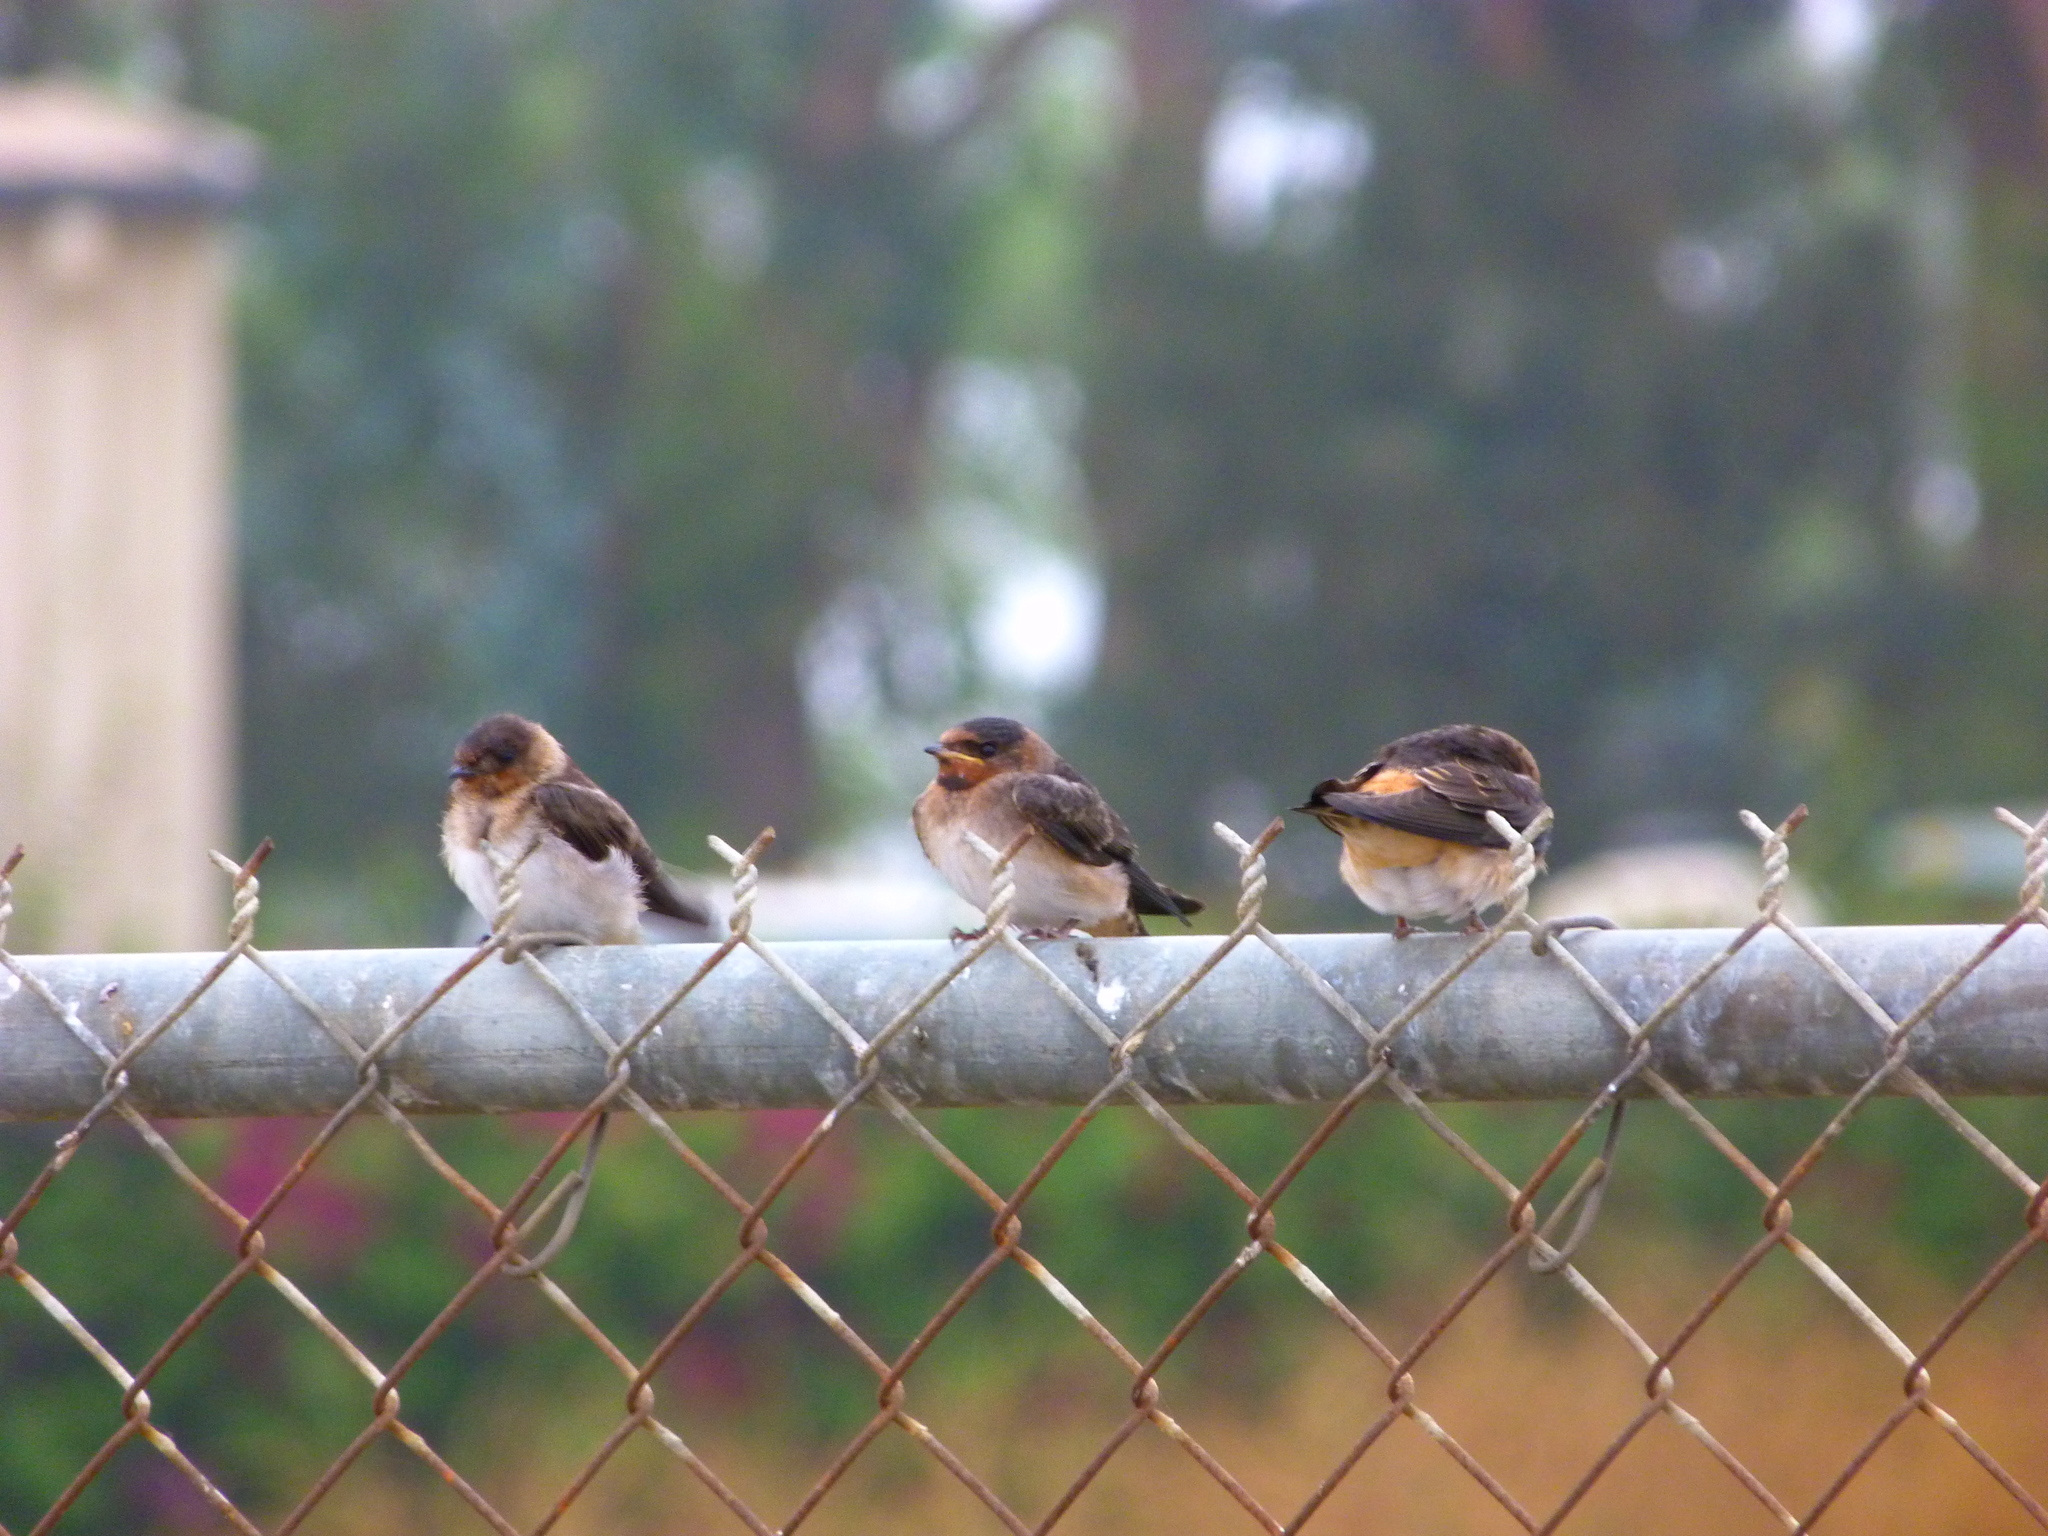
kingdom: Animalia
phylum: Chordata
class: Aves
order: Passeriformes
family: Hirundinidae
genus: Petrochelidon
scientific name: Petrochelidon pyrrhonota
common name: American cliff swallow
